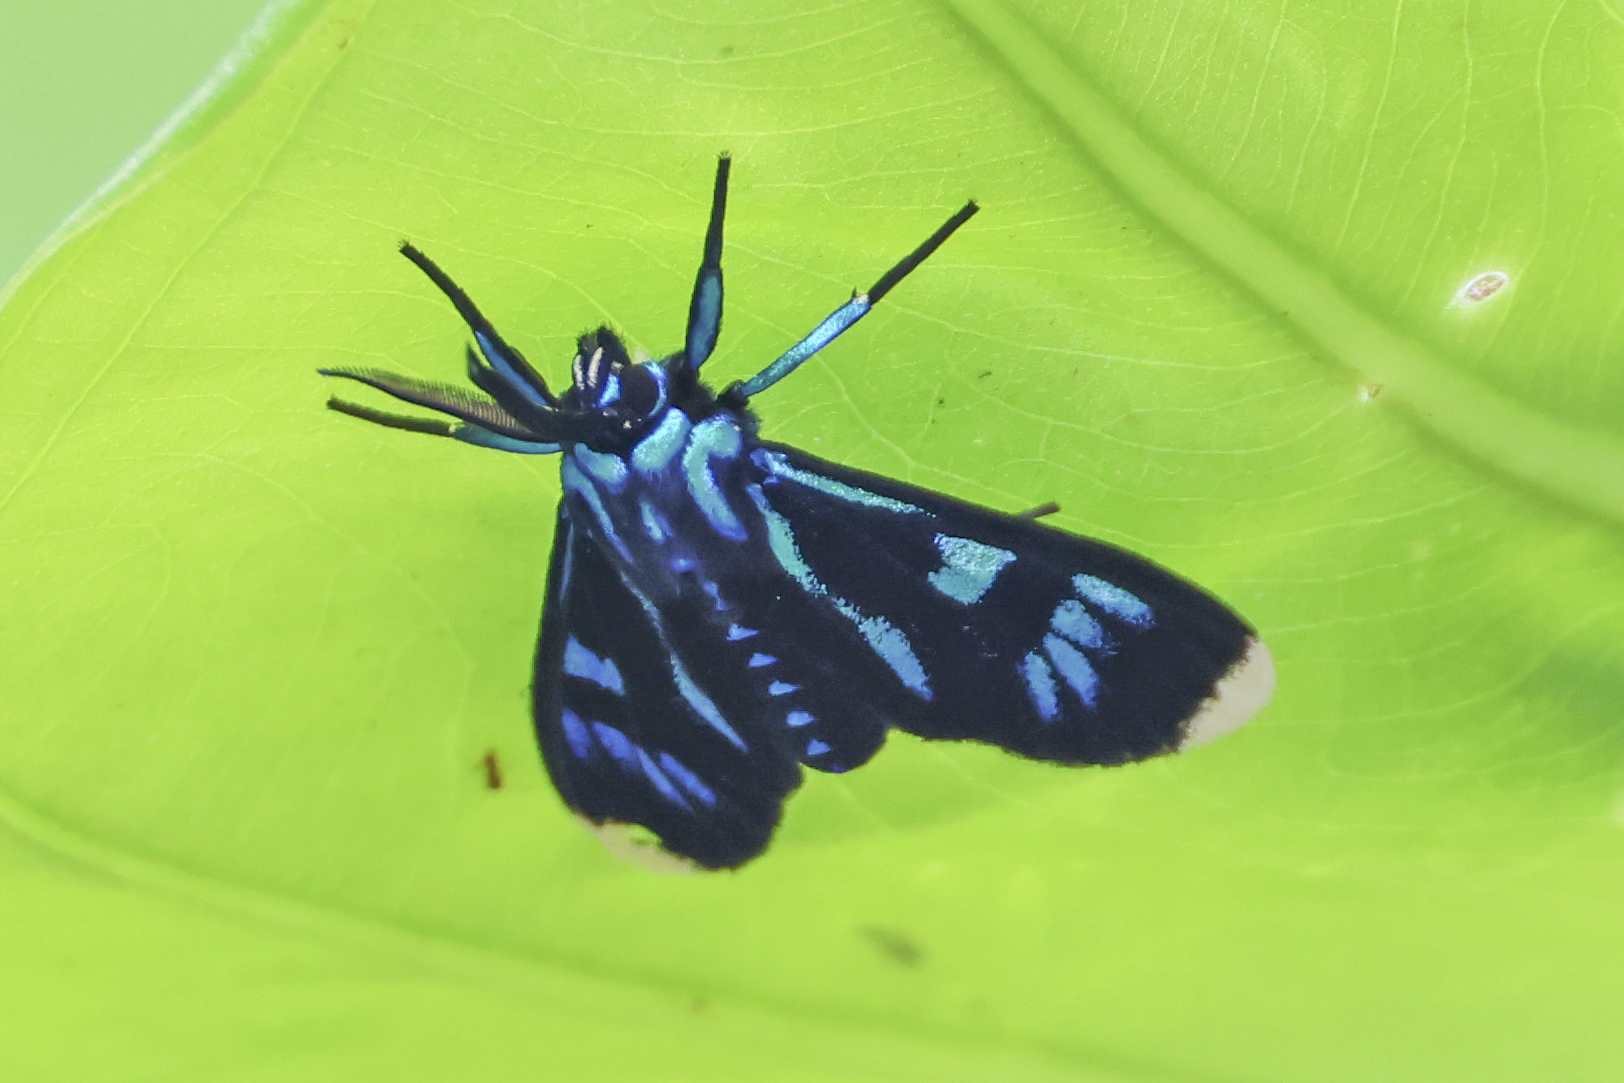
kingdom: Animalia
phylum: Arthropoda
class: Insecta
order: Lepidoptera
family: Erebidae
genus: Uranophora
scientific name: Uranophora quadristrigata
